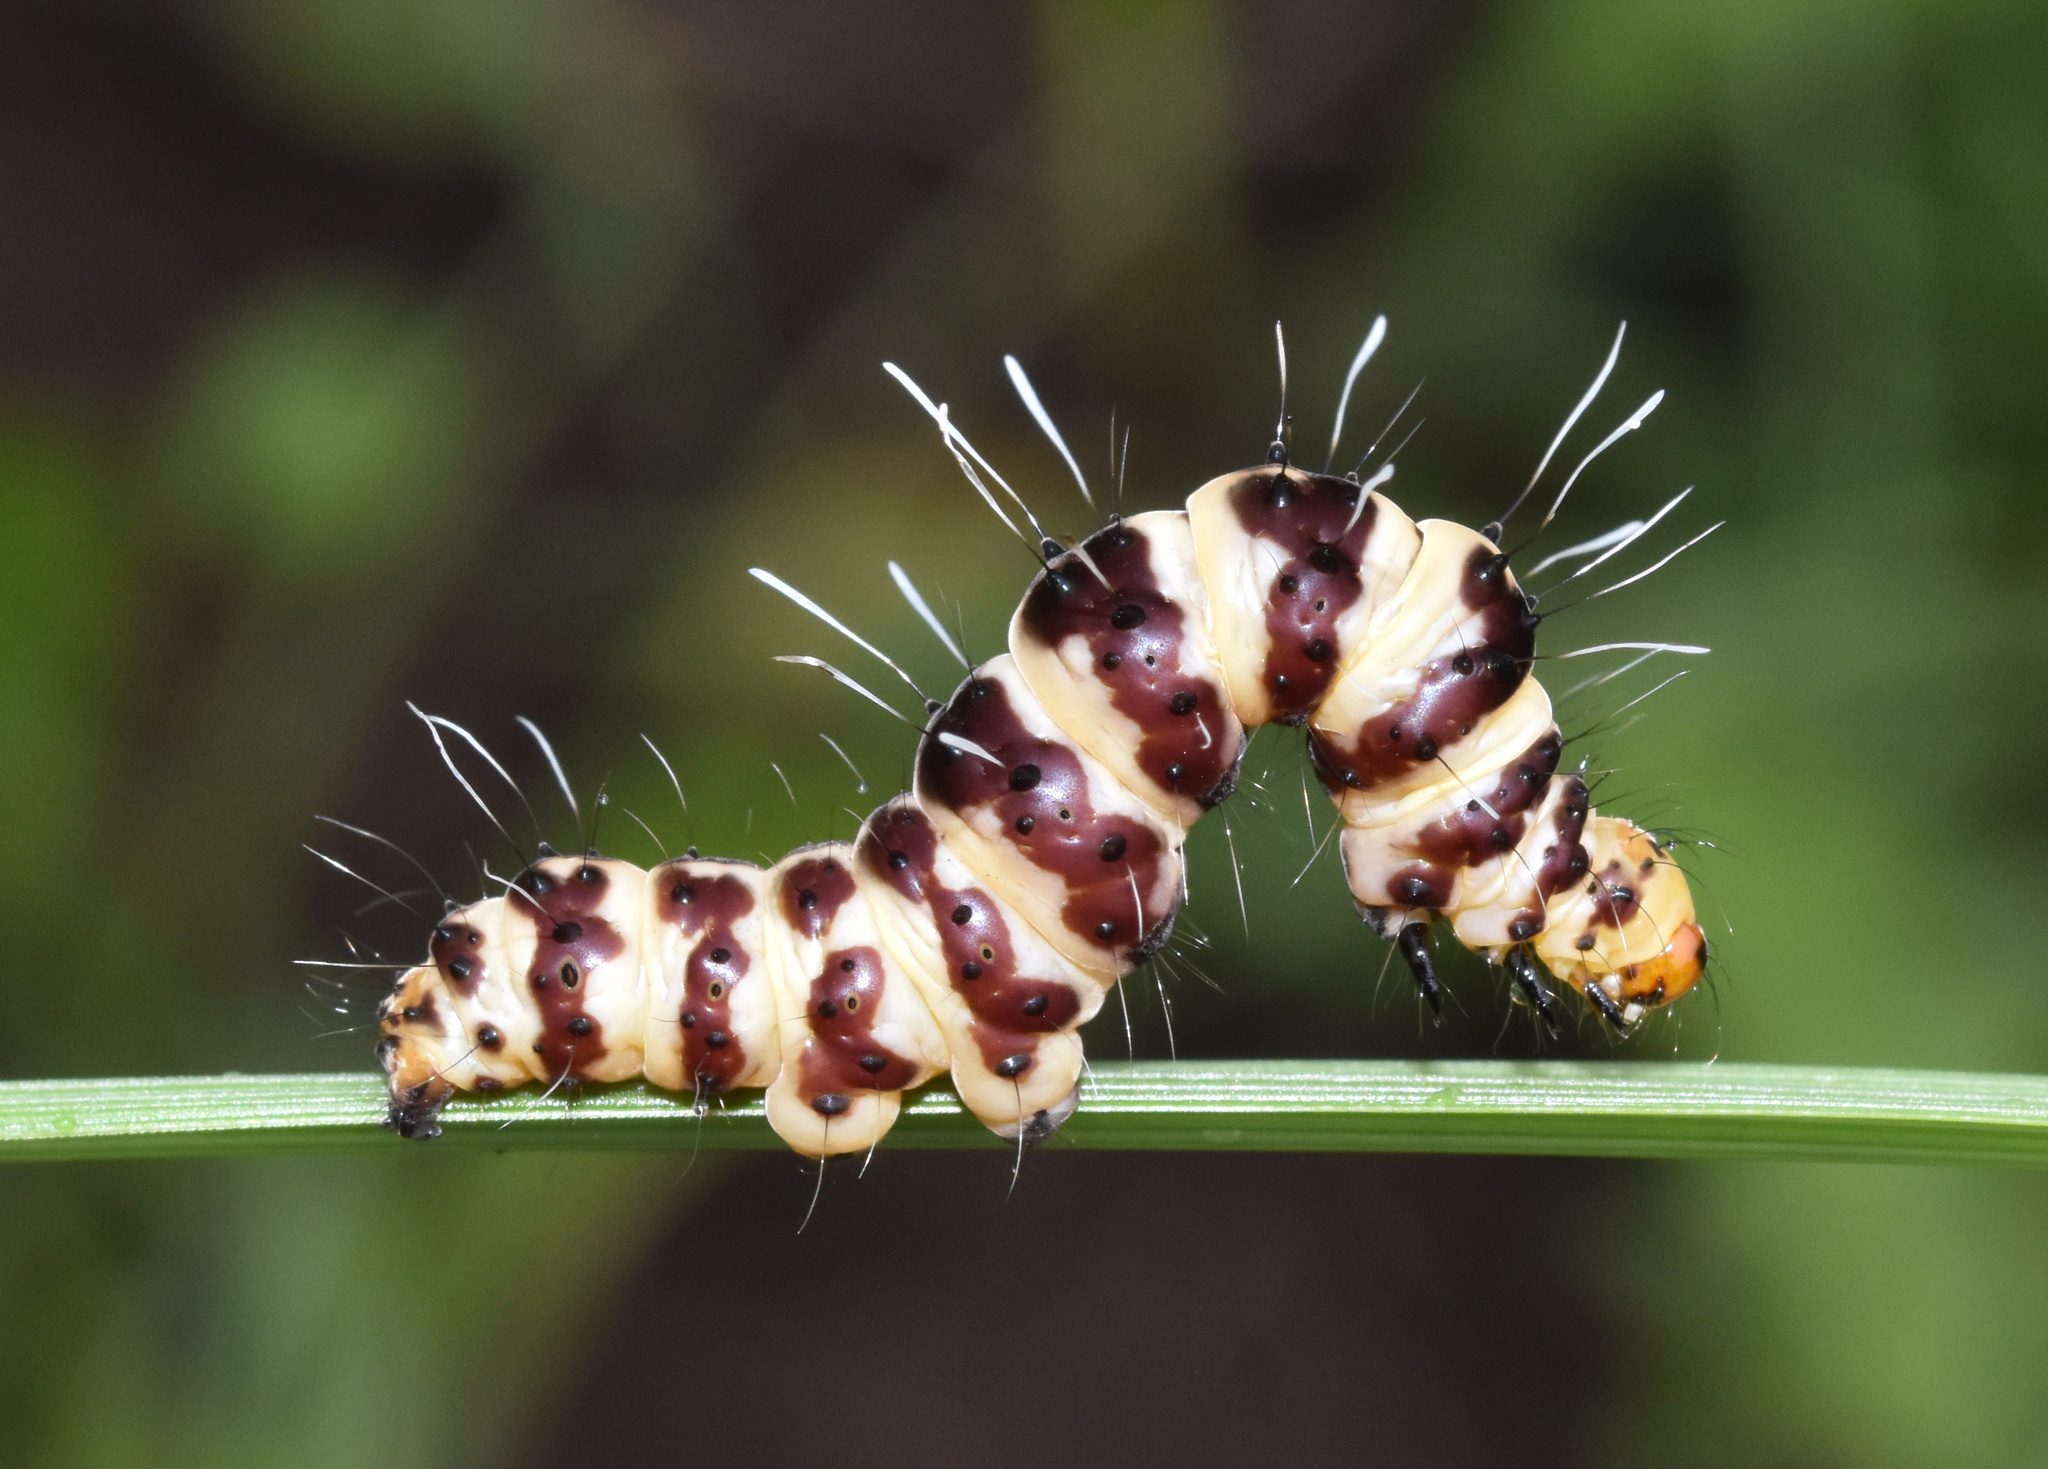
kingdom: Animalia
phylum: Arthropoda
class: Insecta
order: Lepidoptera
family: Erebidae
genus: Rhanidophora
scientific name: Rhanidophora
